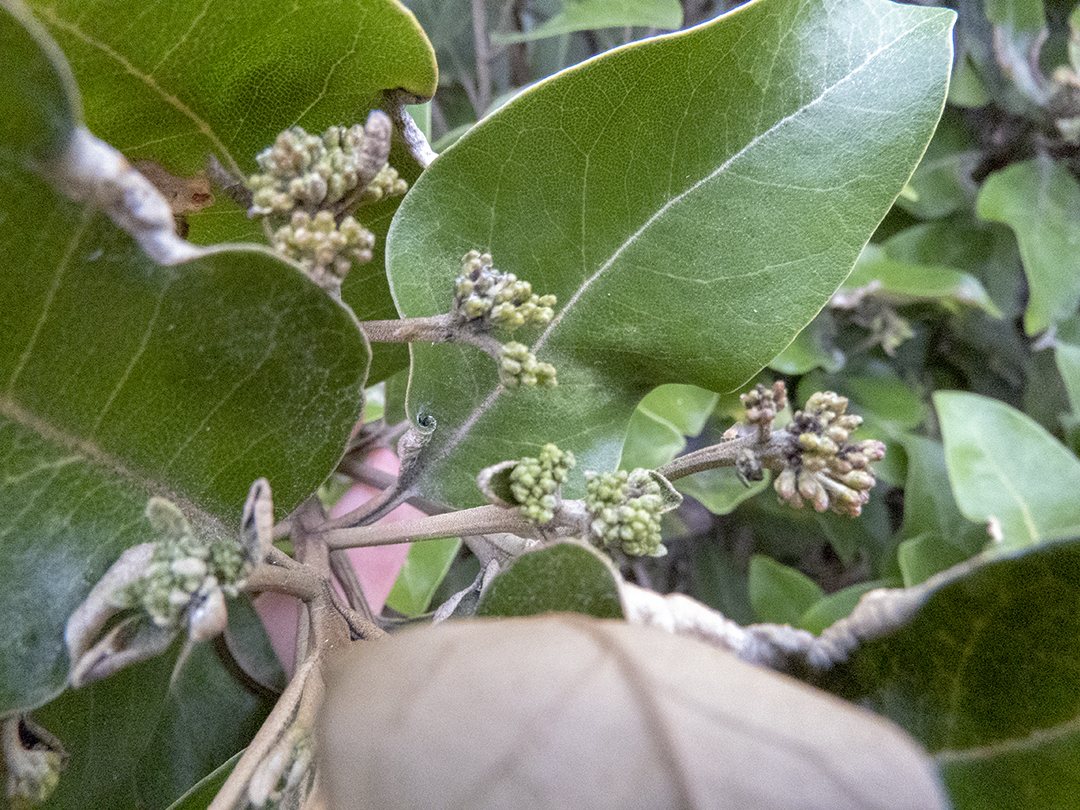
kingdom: Plantae
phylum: Tracheophyta
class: Magnoliopsida
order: Asterales
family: Asteraceae
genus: Olearia
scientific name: Olearia avicenniifolia
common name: Mangrove-leaf daisybush
